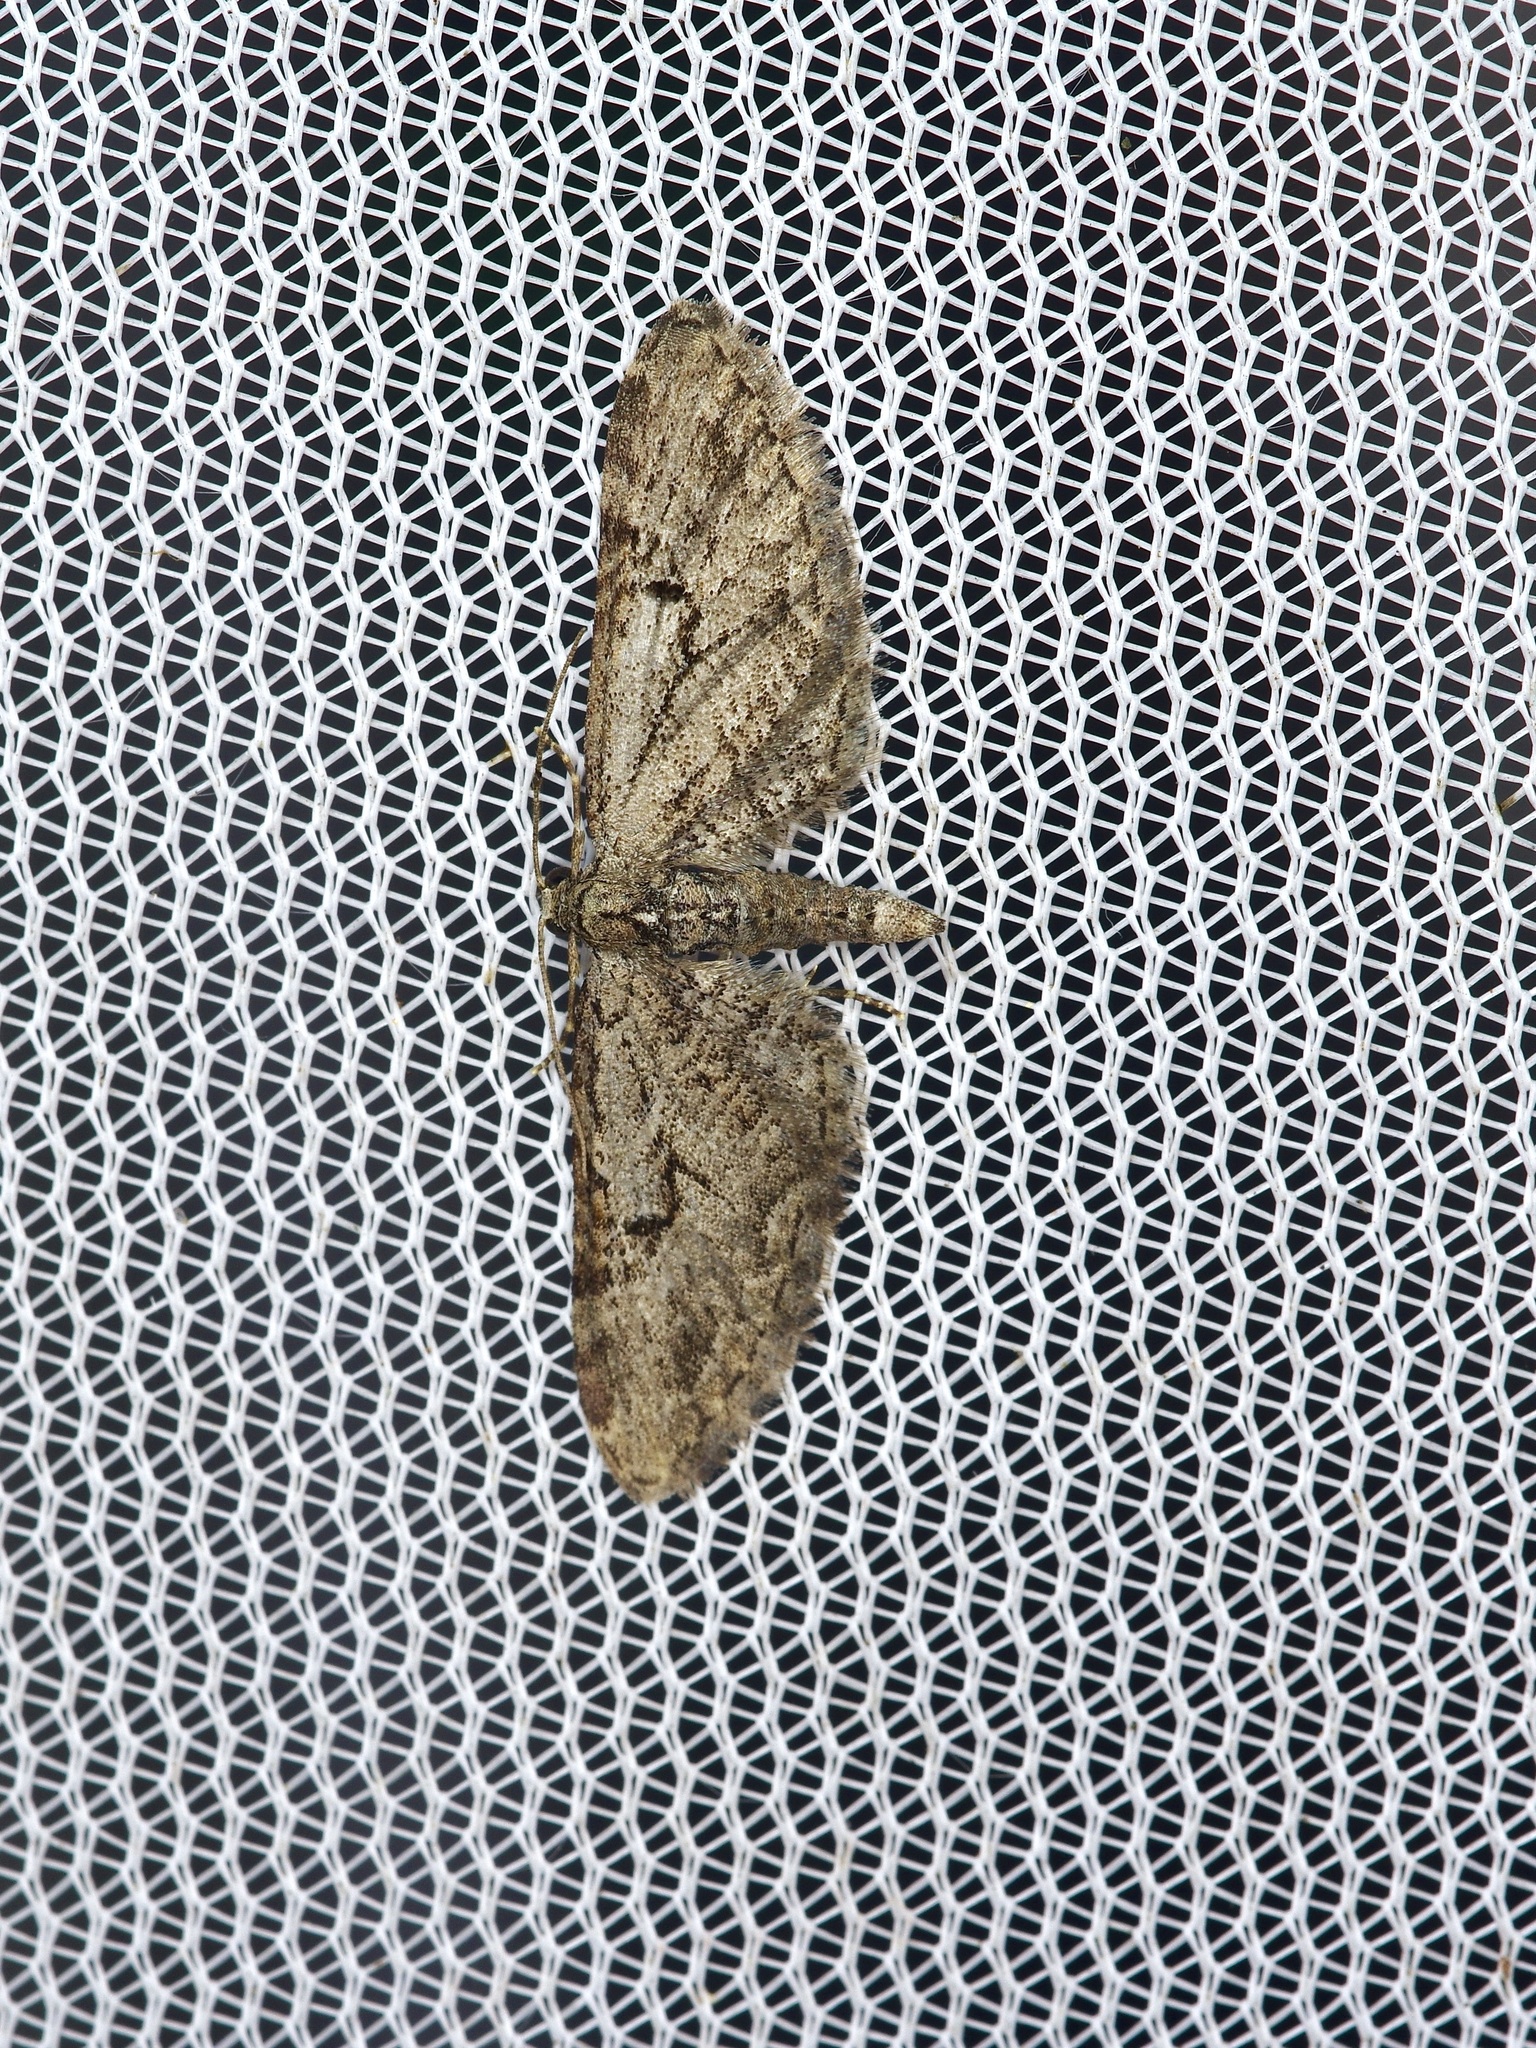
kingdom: Animalia
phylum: Arthropoda
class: Insecta
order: Lepidoptera
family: Geometridae
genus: Eupithecia
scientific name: Eupithecia bolterii
